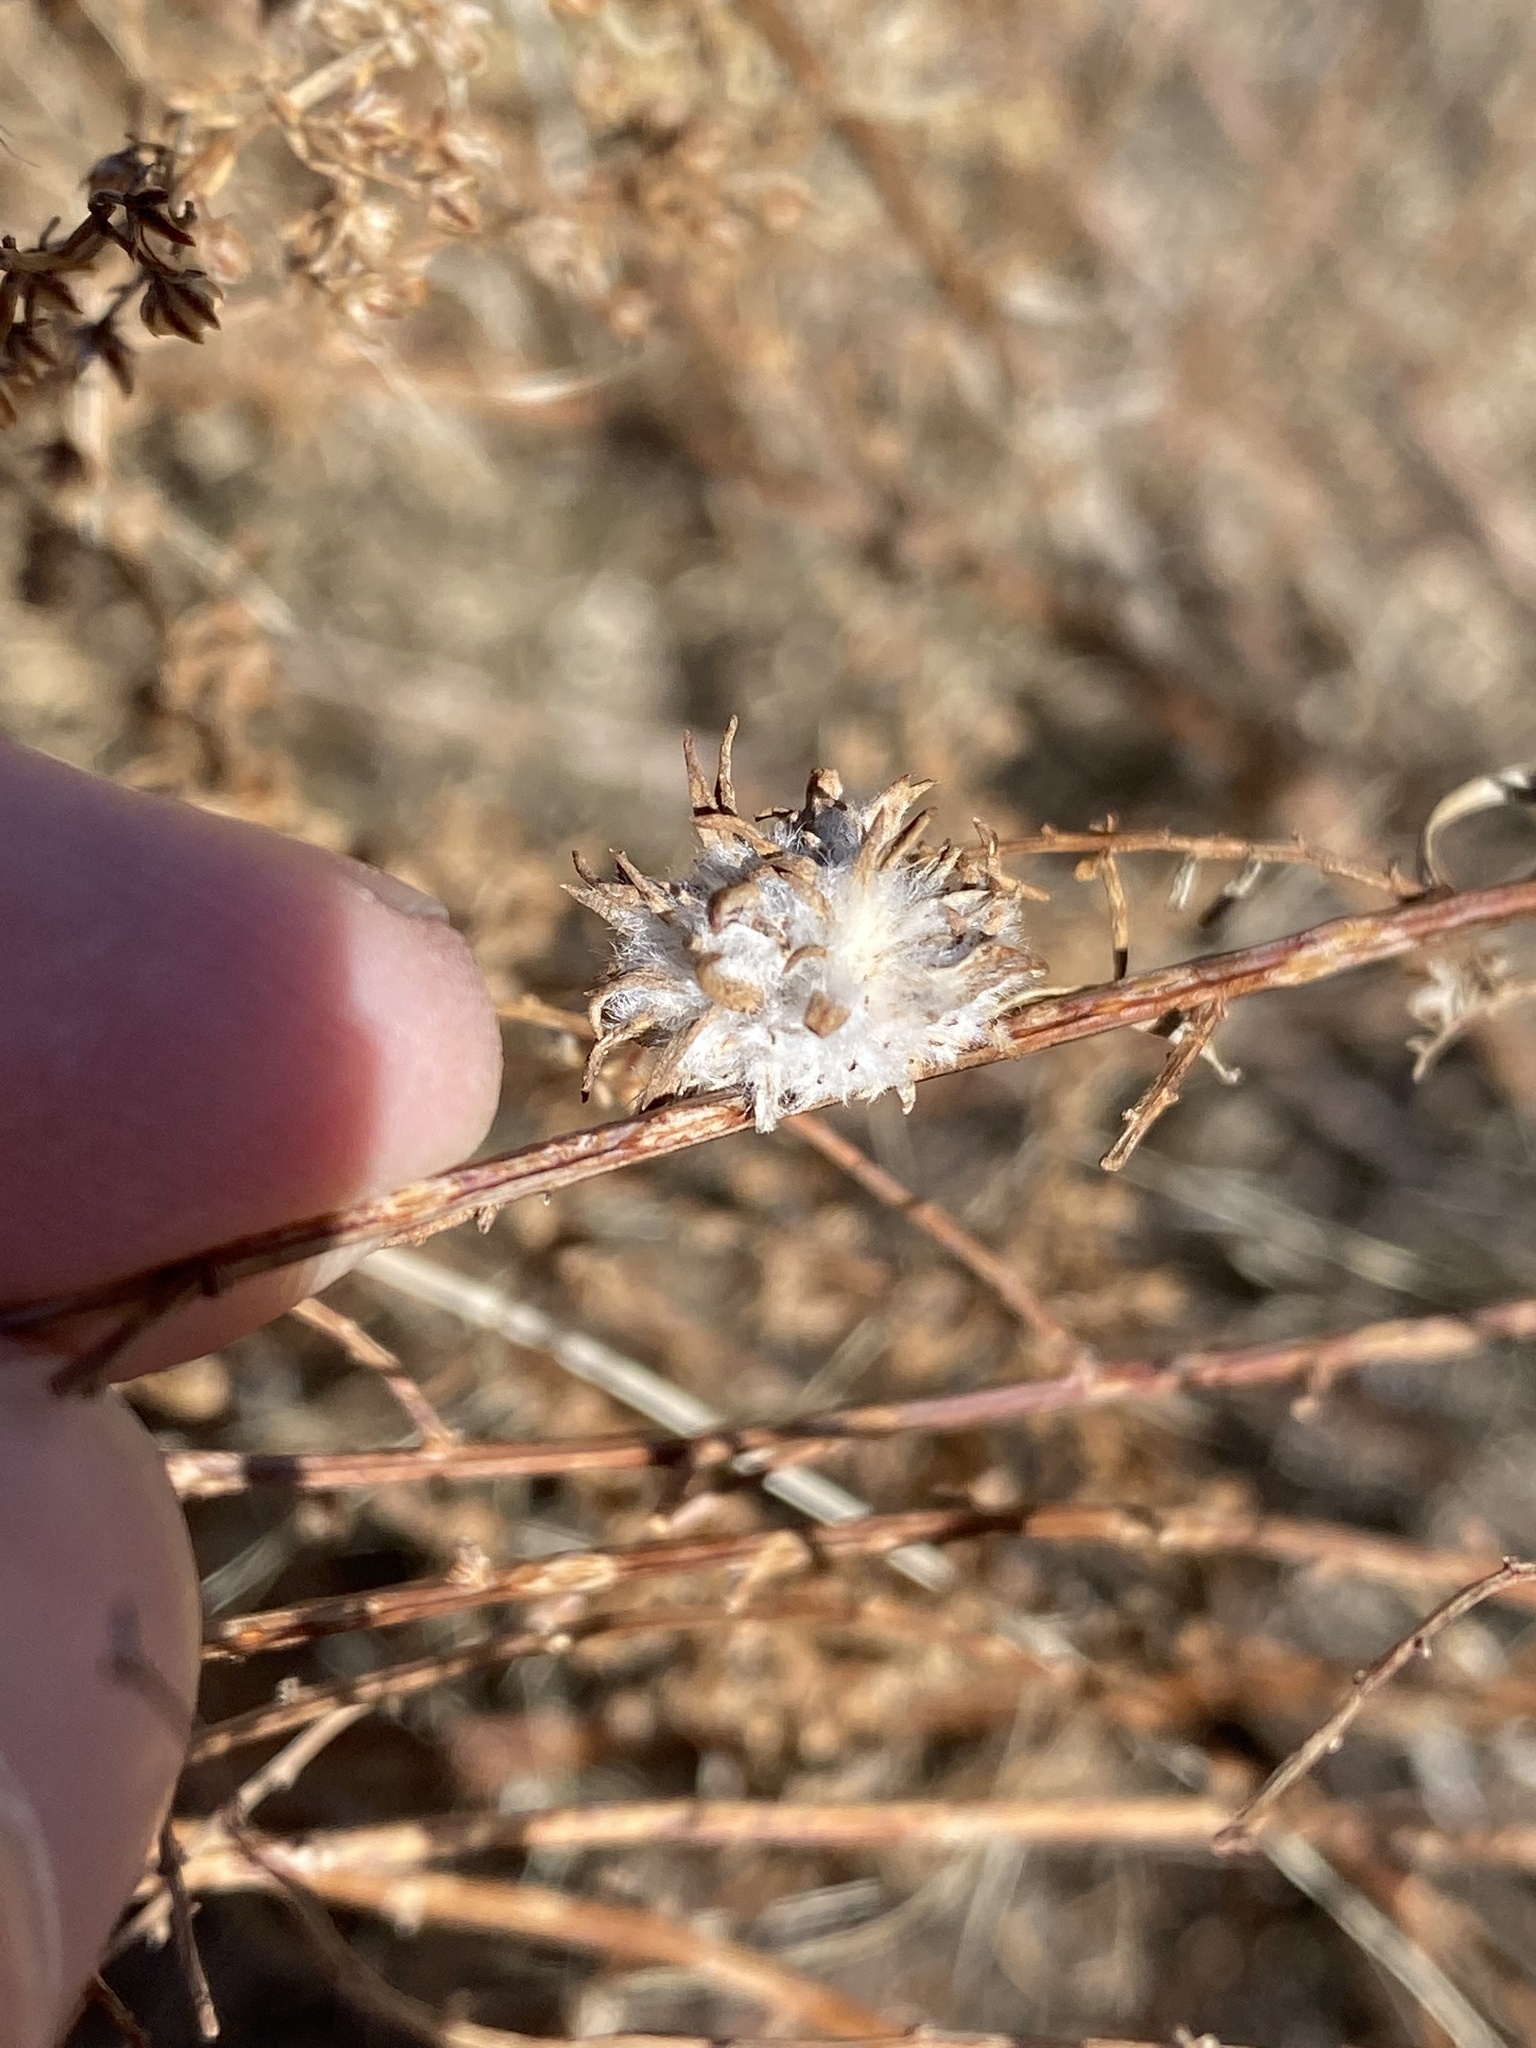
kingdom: Animalia
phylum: Arthropoda
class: Insecta
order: Diptera
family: Cecidomyiidae
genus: Rhopalomyia
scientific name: Rhopalomyia
